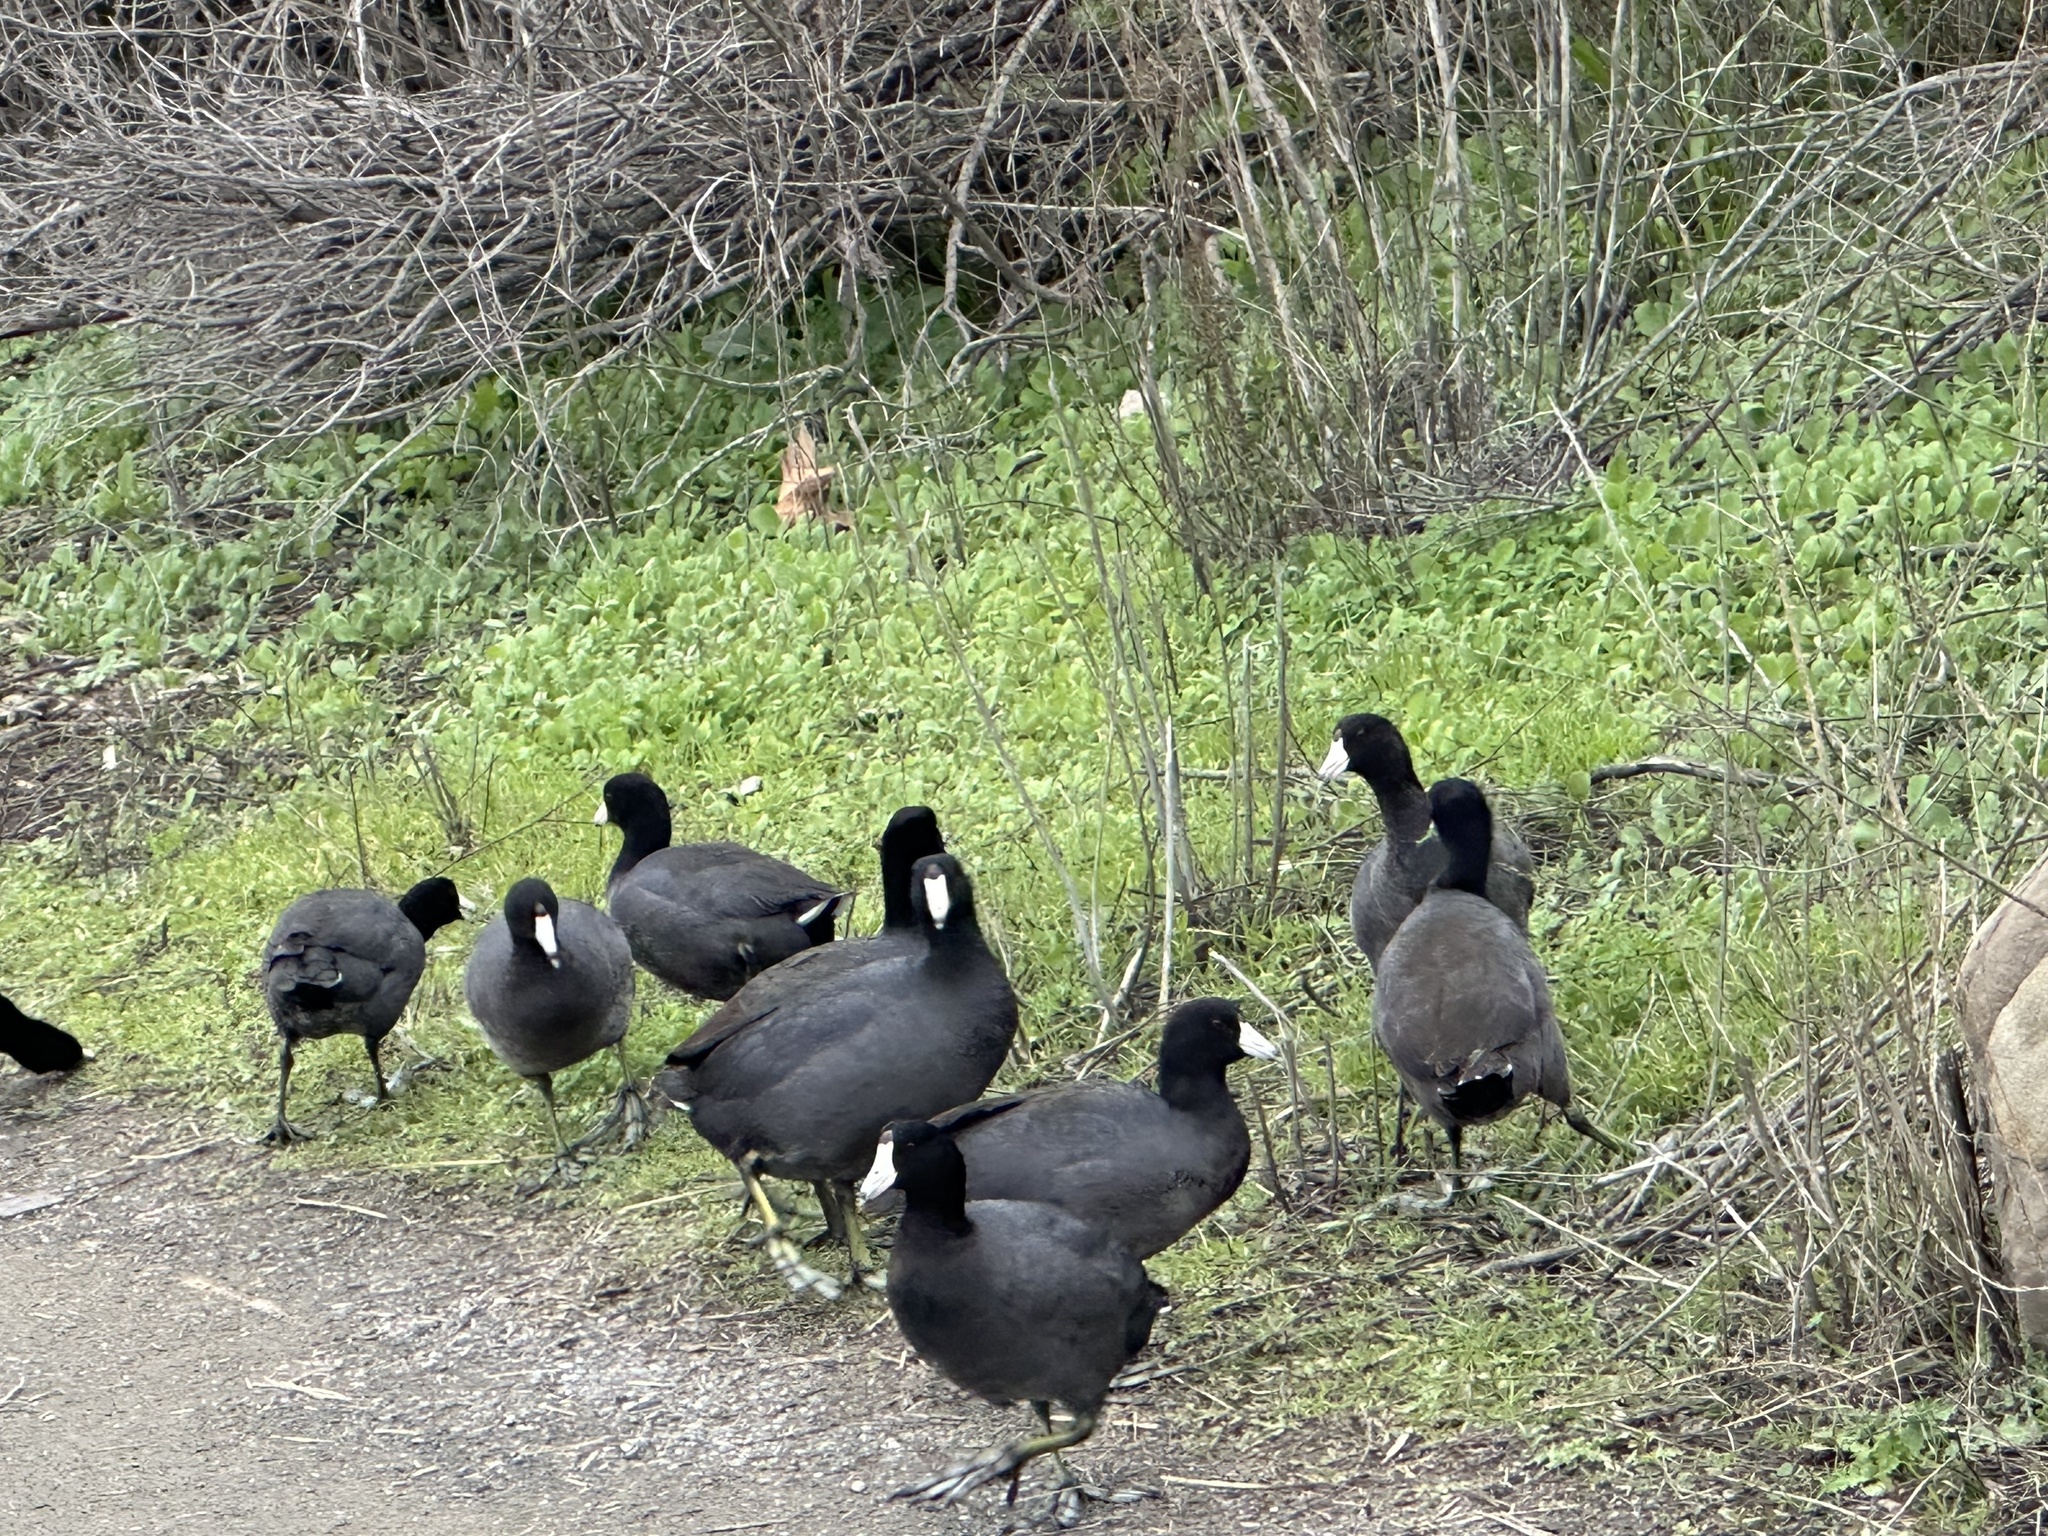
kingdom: Animalia
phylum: Chordata
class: Aves
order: Gruiformes
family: Rallidae
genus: Fulica
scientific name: Fulica americana
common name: American coot
